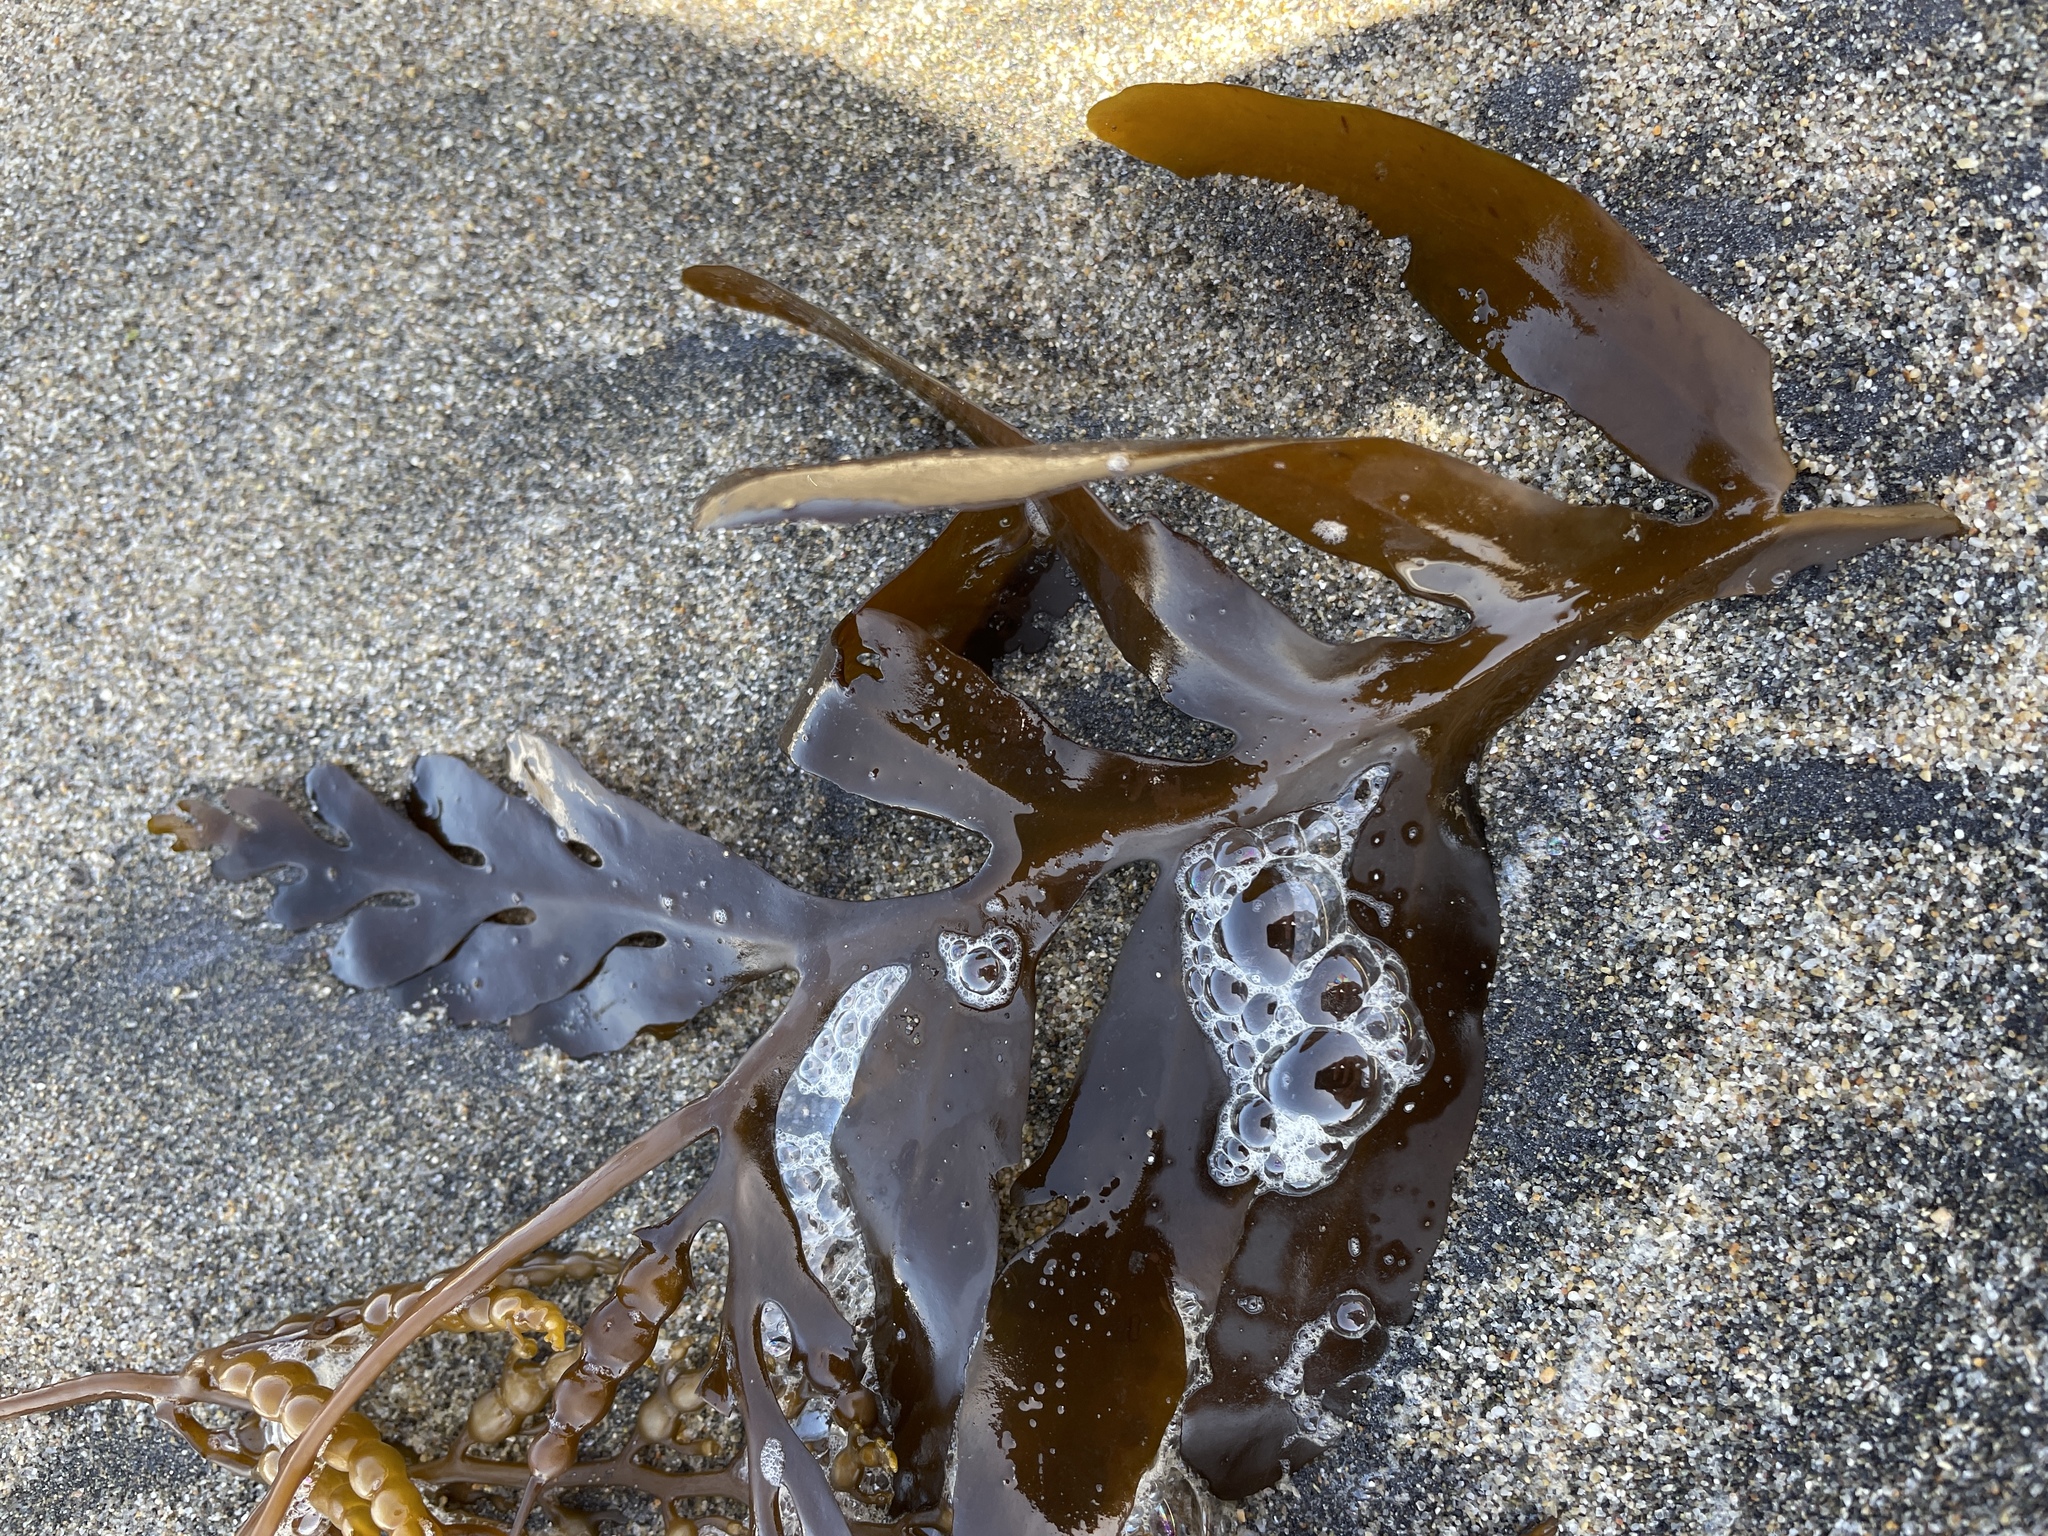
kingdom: Chromista
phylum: Ochrophyta
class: Phaeophyceae
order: Fucales
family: Sargassaceae
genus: Stephanocystis
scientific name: Stephanocystis
